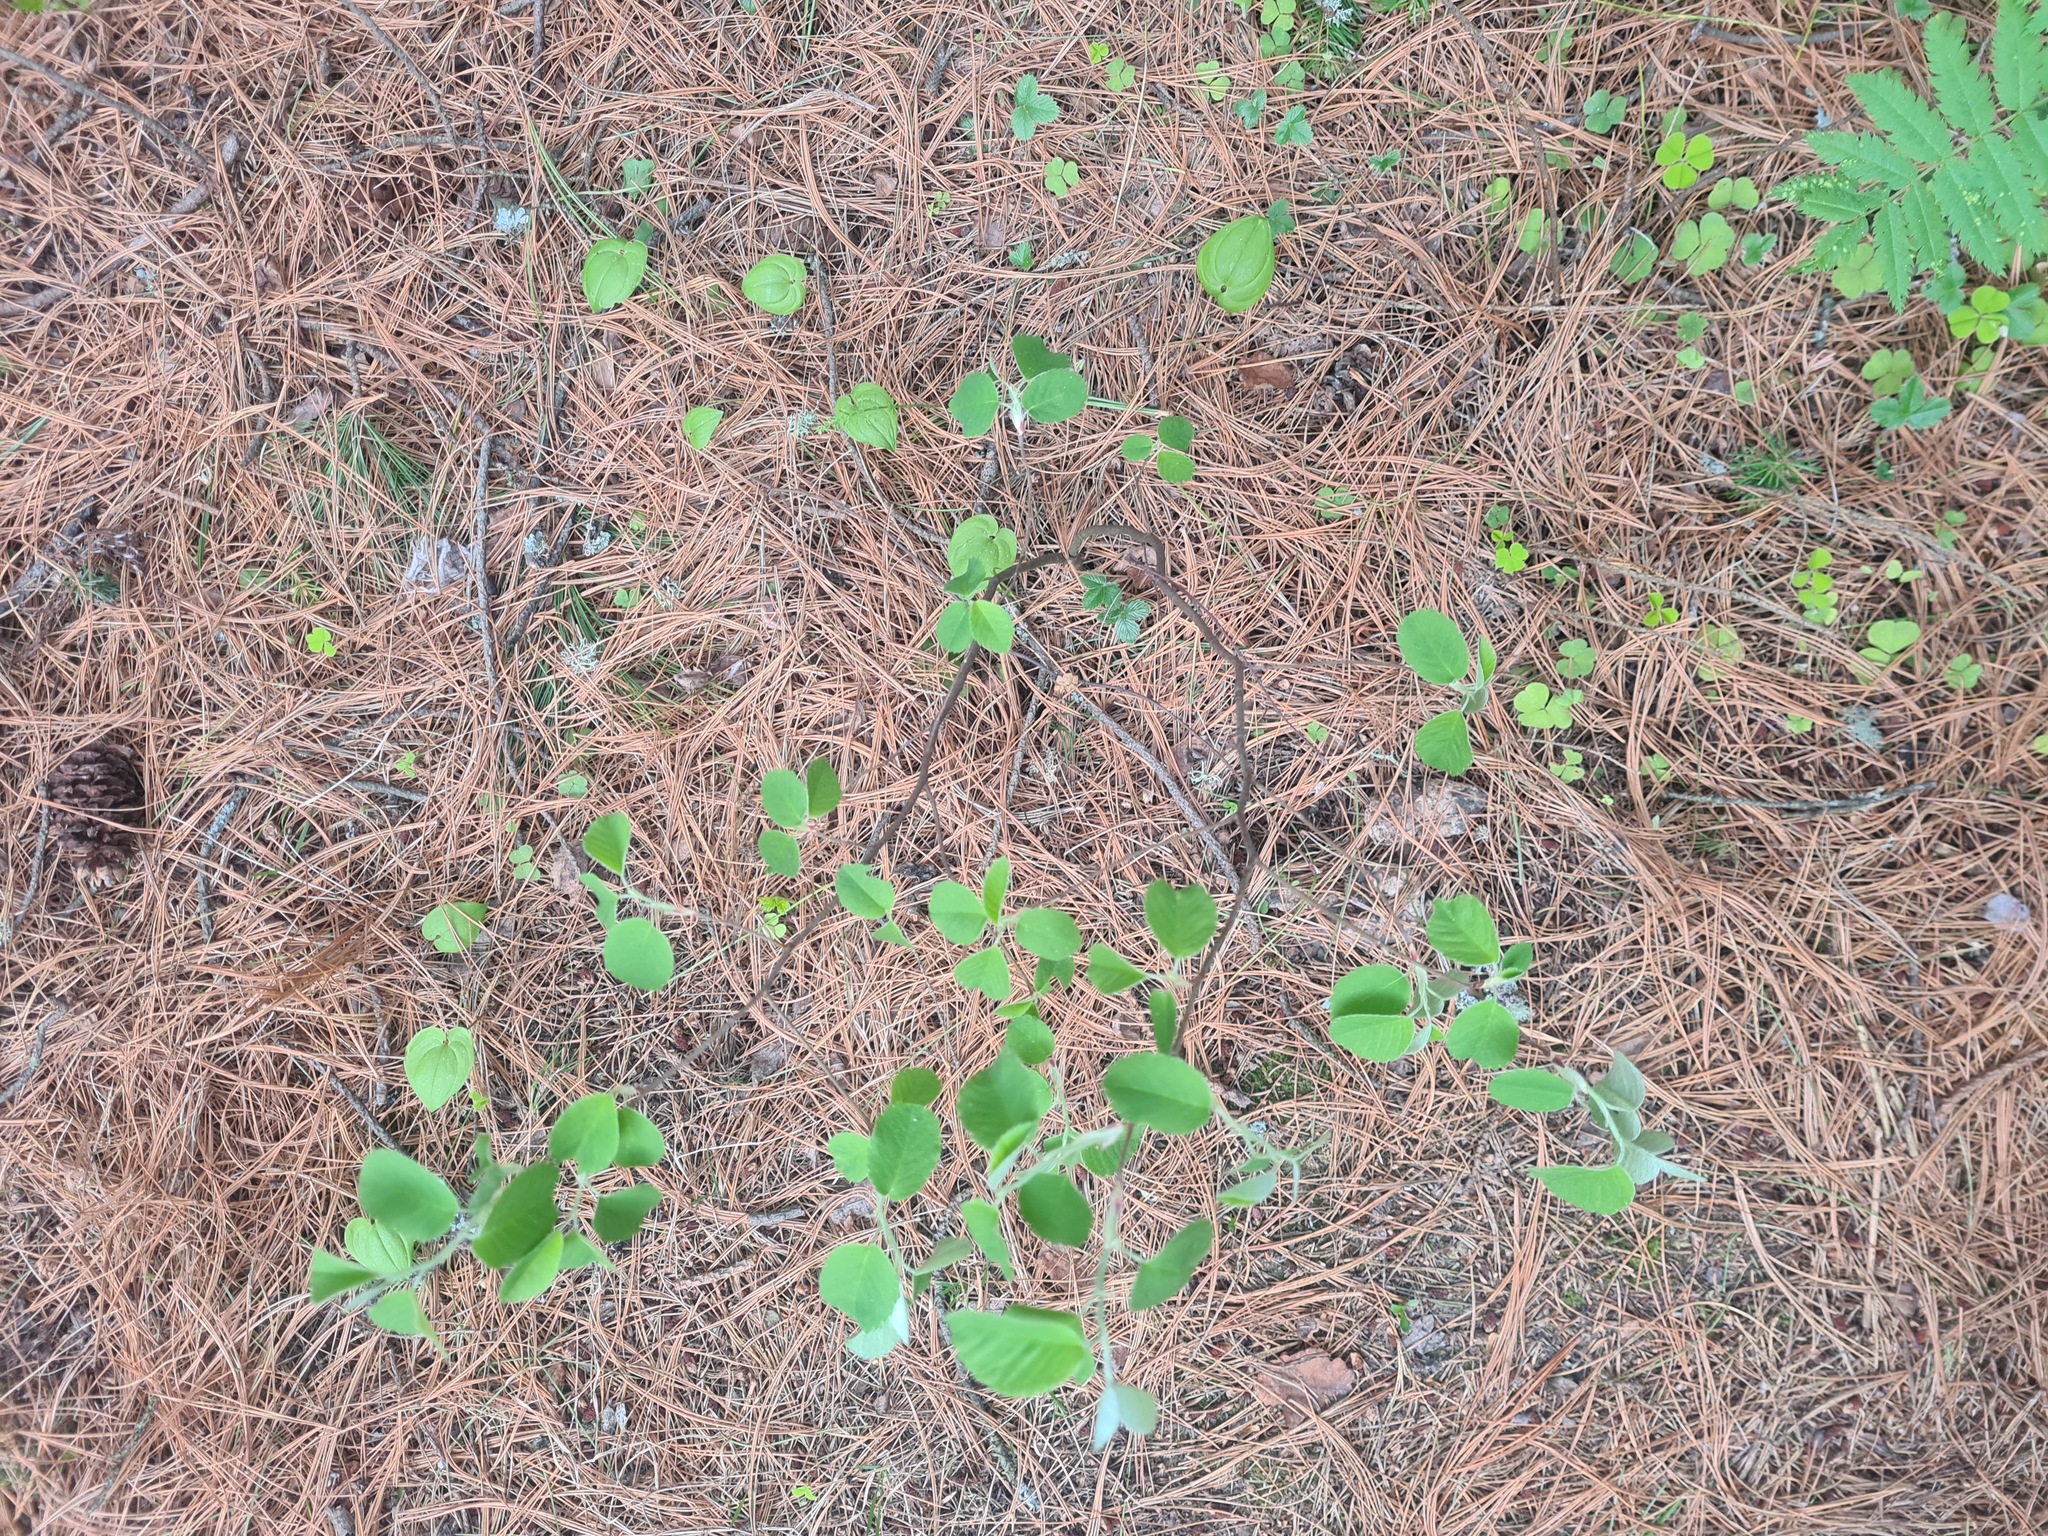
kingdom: Plantae
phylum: Tracheophyta
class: Magnoliopsida
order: Rosales
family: Rosaceae
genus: Amelanchier
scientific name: Amelanchier alnifolia
